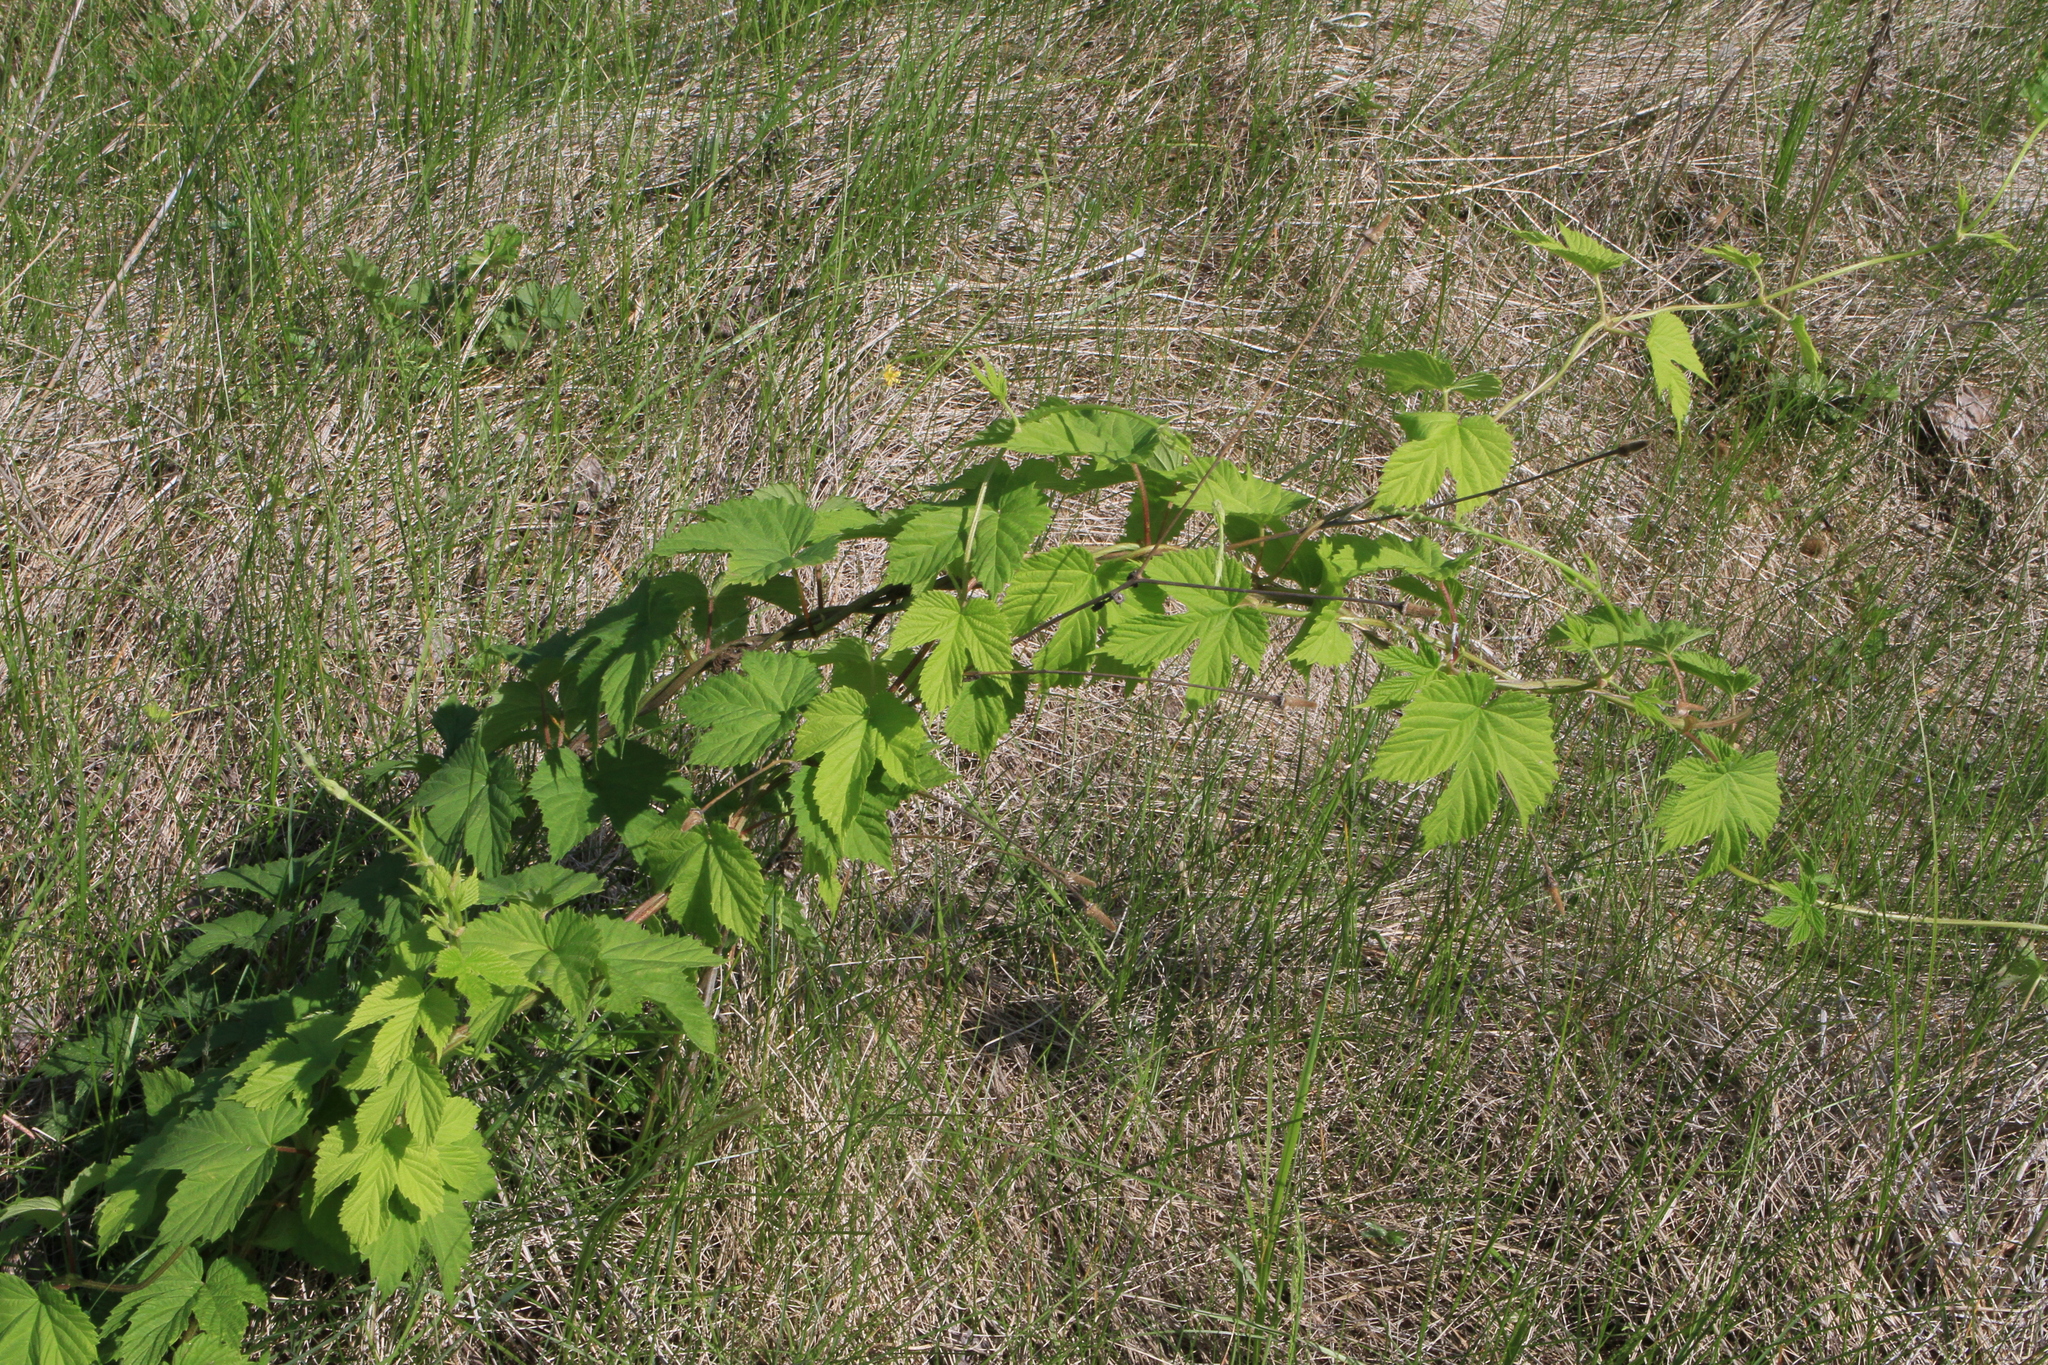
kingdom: Plantae
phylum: Tracheophyta
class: Magnoliopsida
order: Rosales
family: Cannabaceae
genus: Humulus
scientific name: Humulus lupulus
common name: Hop
